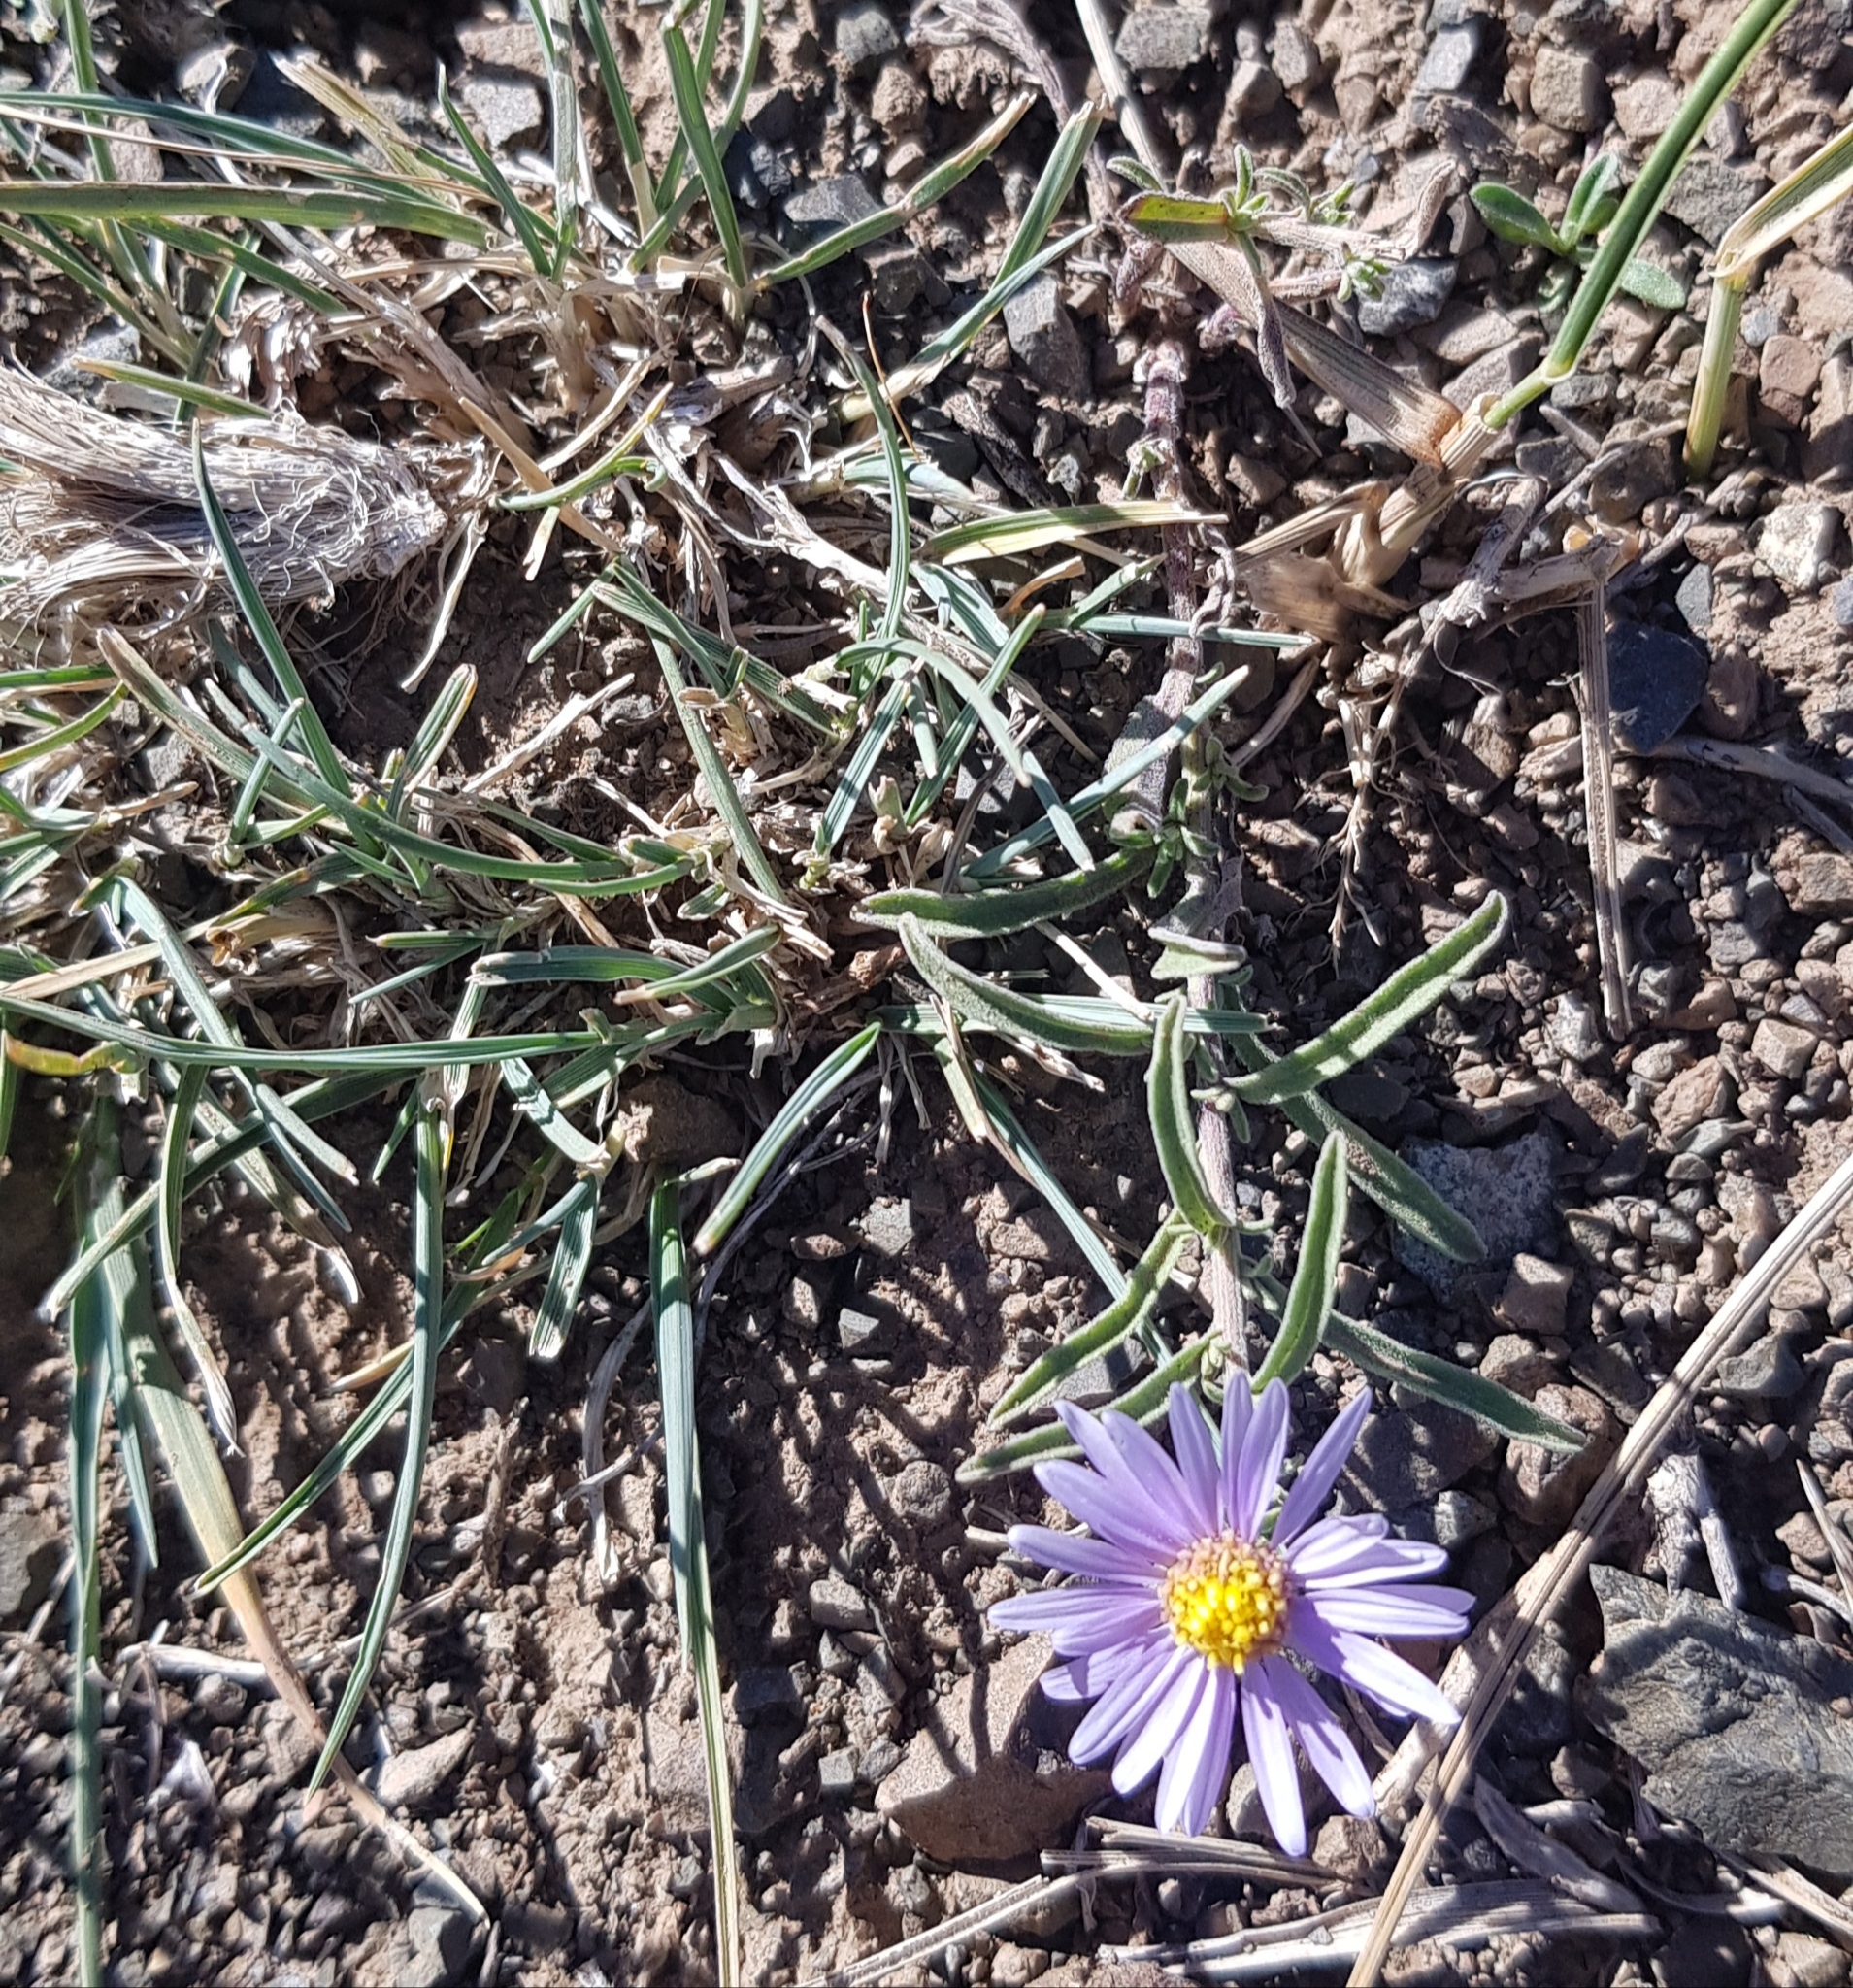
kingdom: Plantae
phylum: Tracheophyta
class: Magnoliopsida
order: Asterales
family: Asteraceae
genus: Heteropappus
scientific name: Heteropappus altaicus
